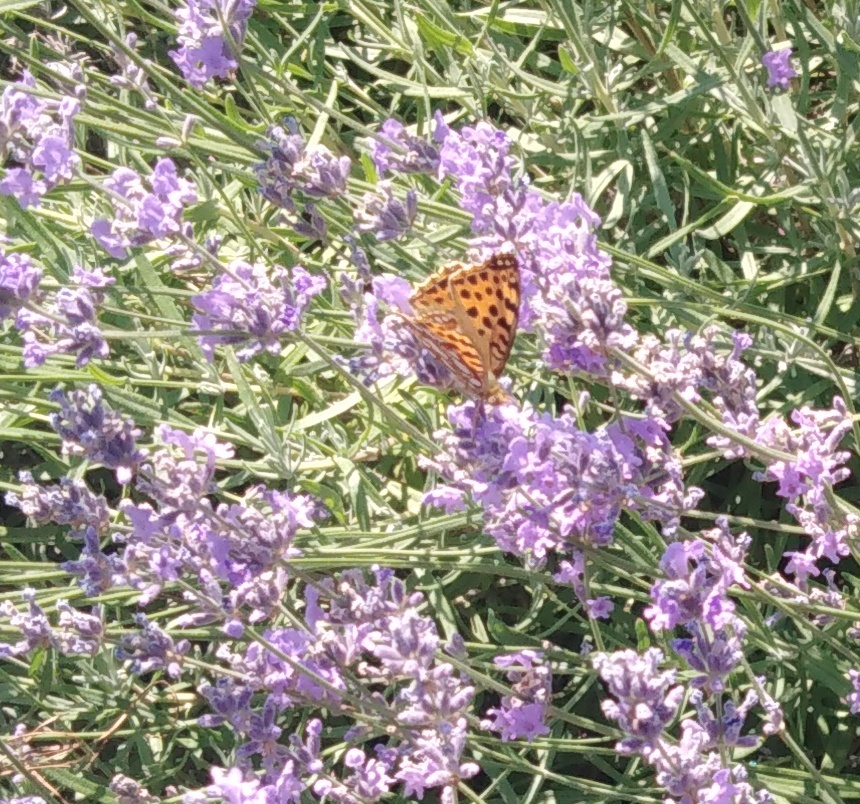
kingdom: Animalia
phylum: Arthropoda
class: Insecta
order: Lepidoptera
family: Nymphalidae
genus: Issoria
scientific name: Issoria lathonia
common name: Queen of spain fritillary
